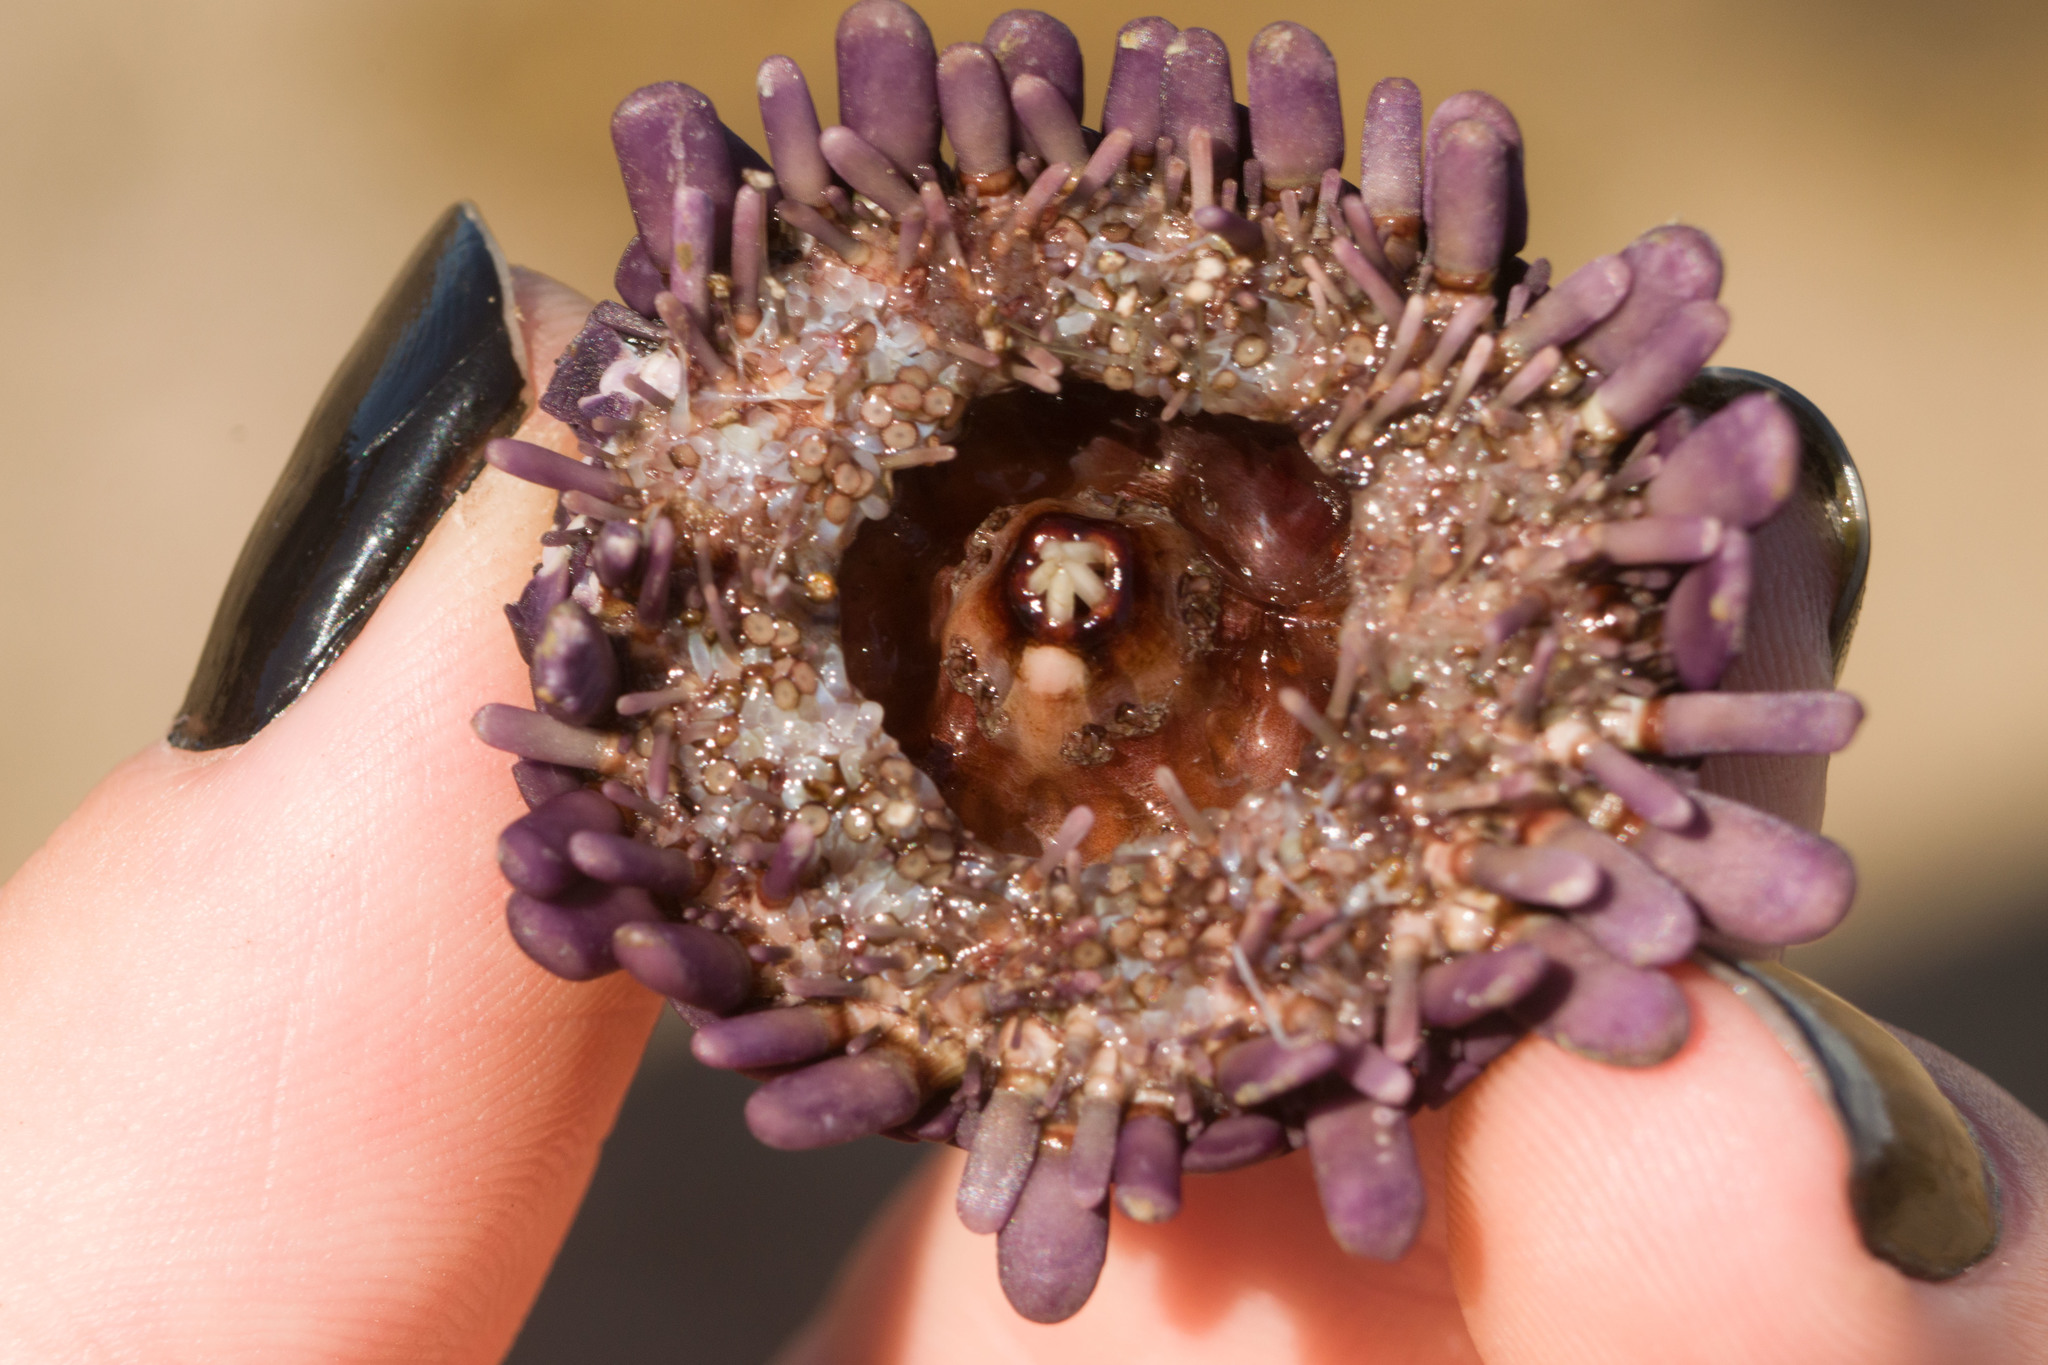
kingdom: Animalia
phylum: Echinodermata
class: Echinoidea
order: Camarodonta
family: Echinometridae
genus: Colobocentrotus
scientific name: Colobocentrotus atratus
